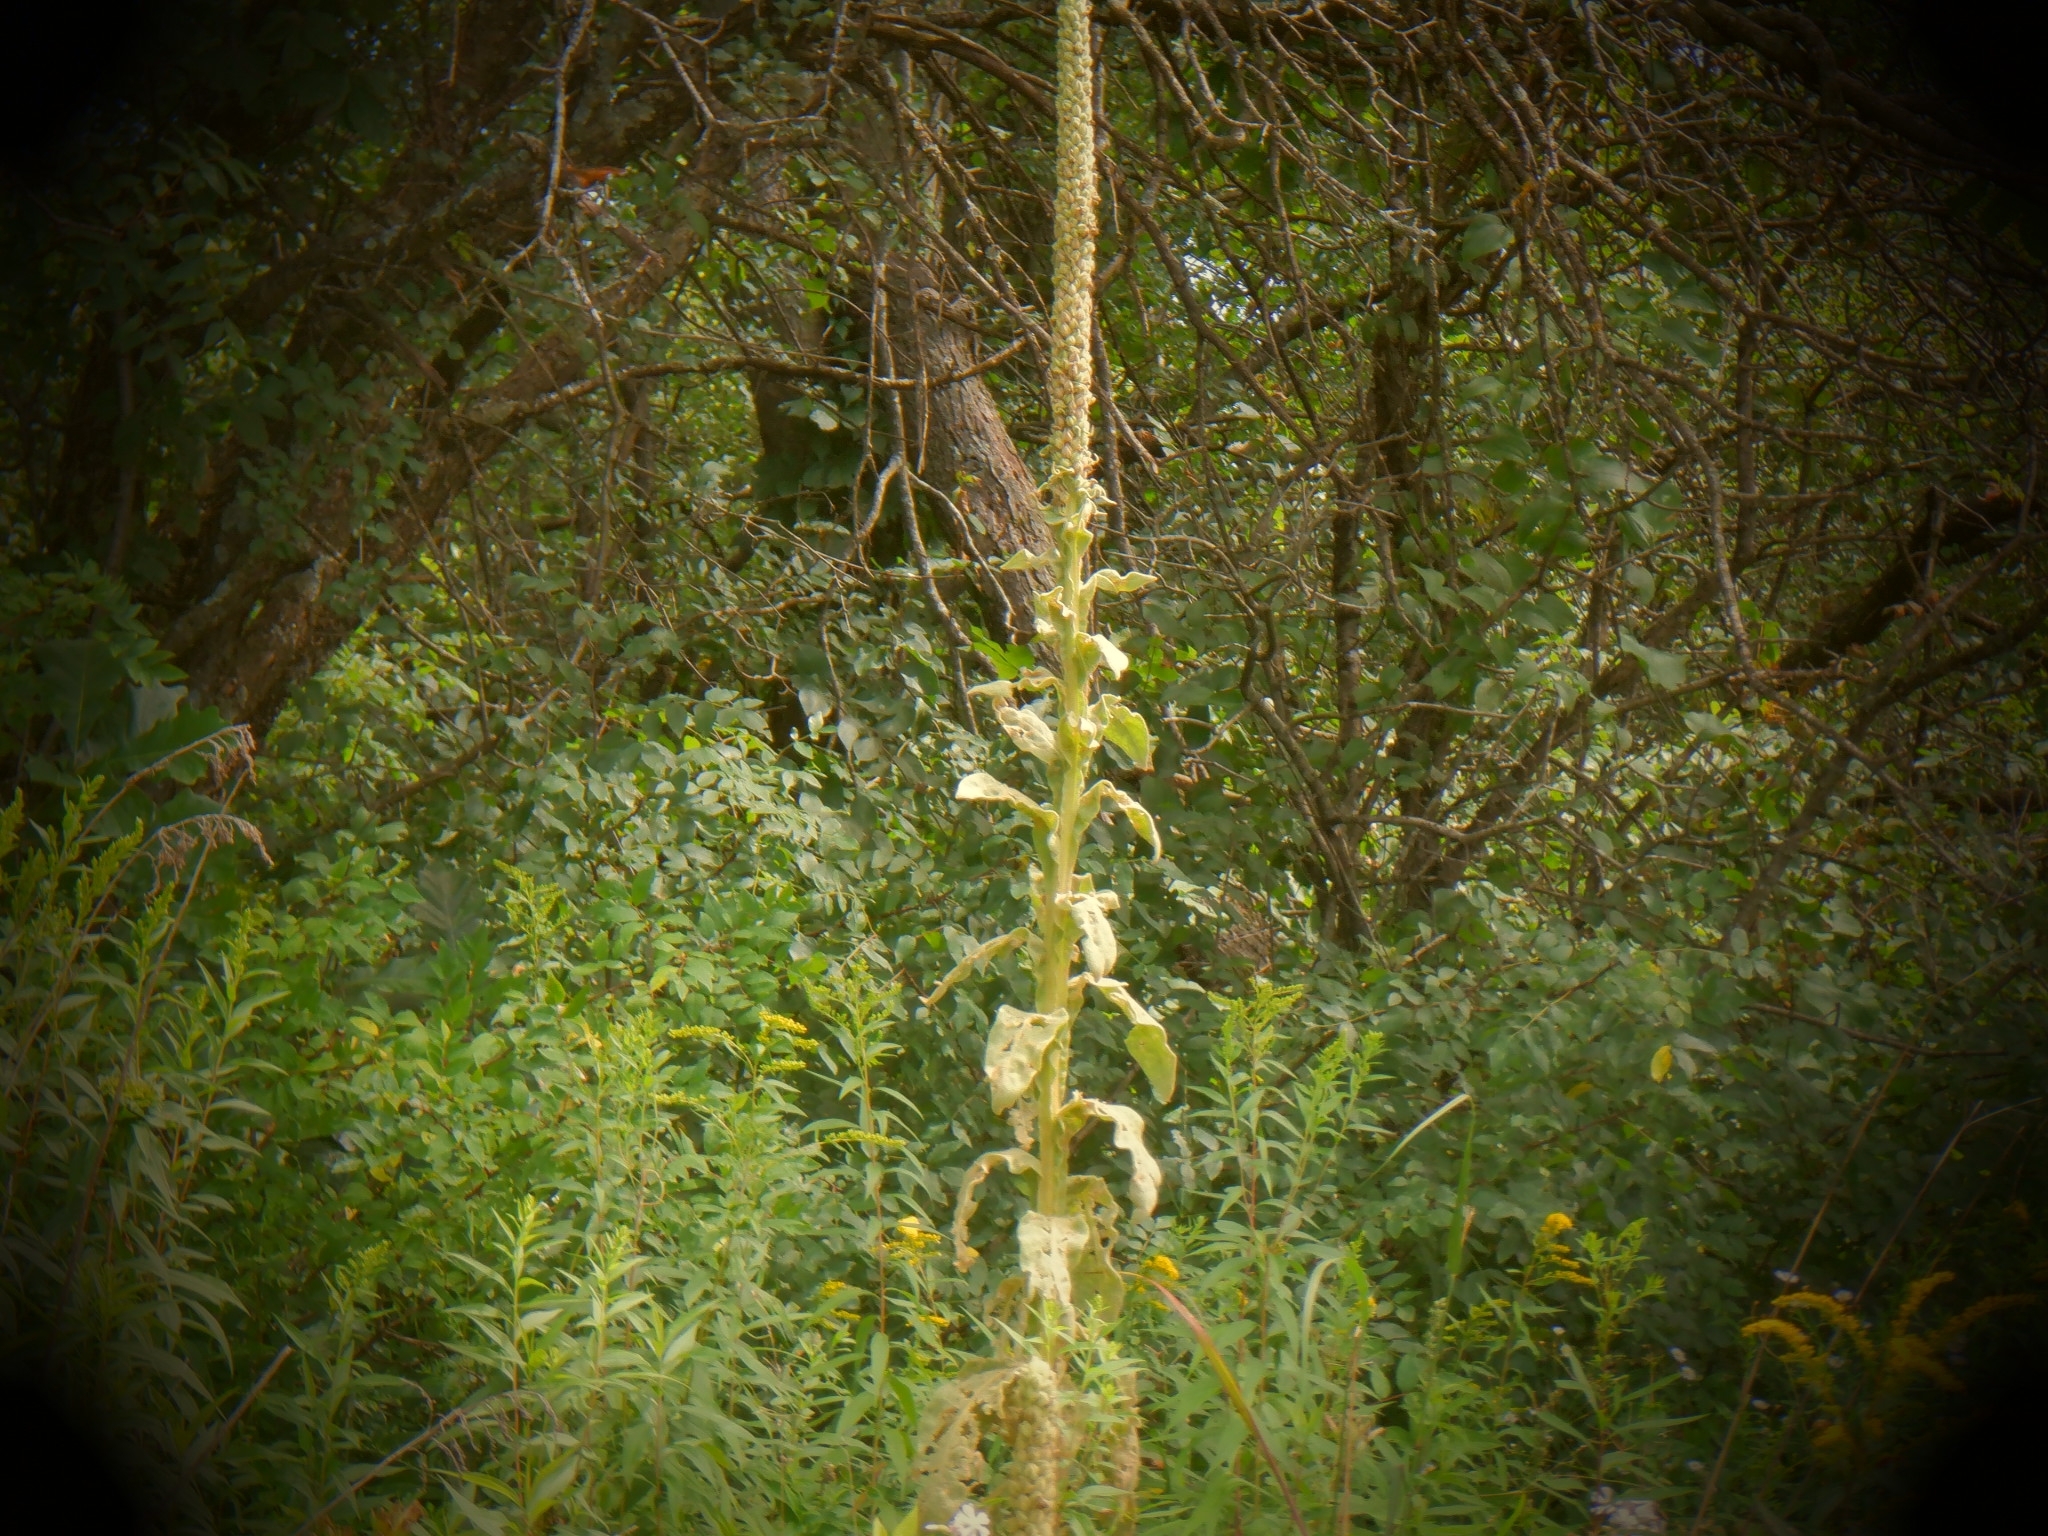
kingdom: Plantae
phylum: Tracheophyta
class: Magnoliopsida
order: Lamiales
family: Scrophulariaceae
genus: Verbascum
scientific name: Verbascum thapsus
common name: Common mullein
